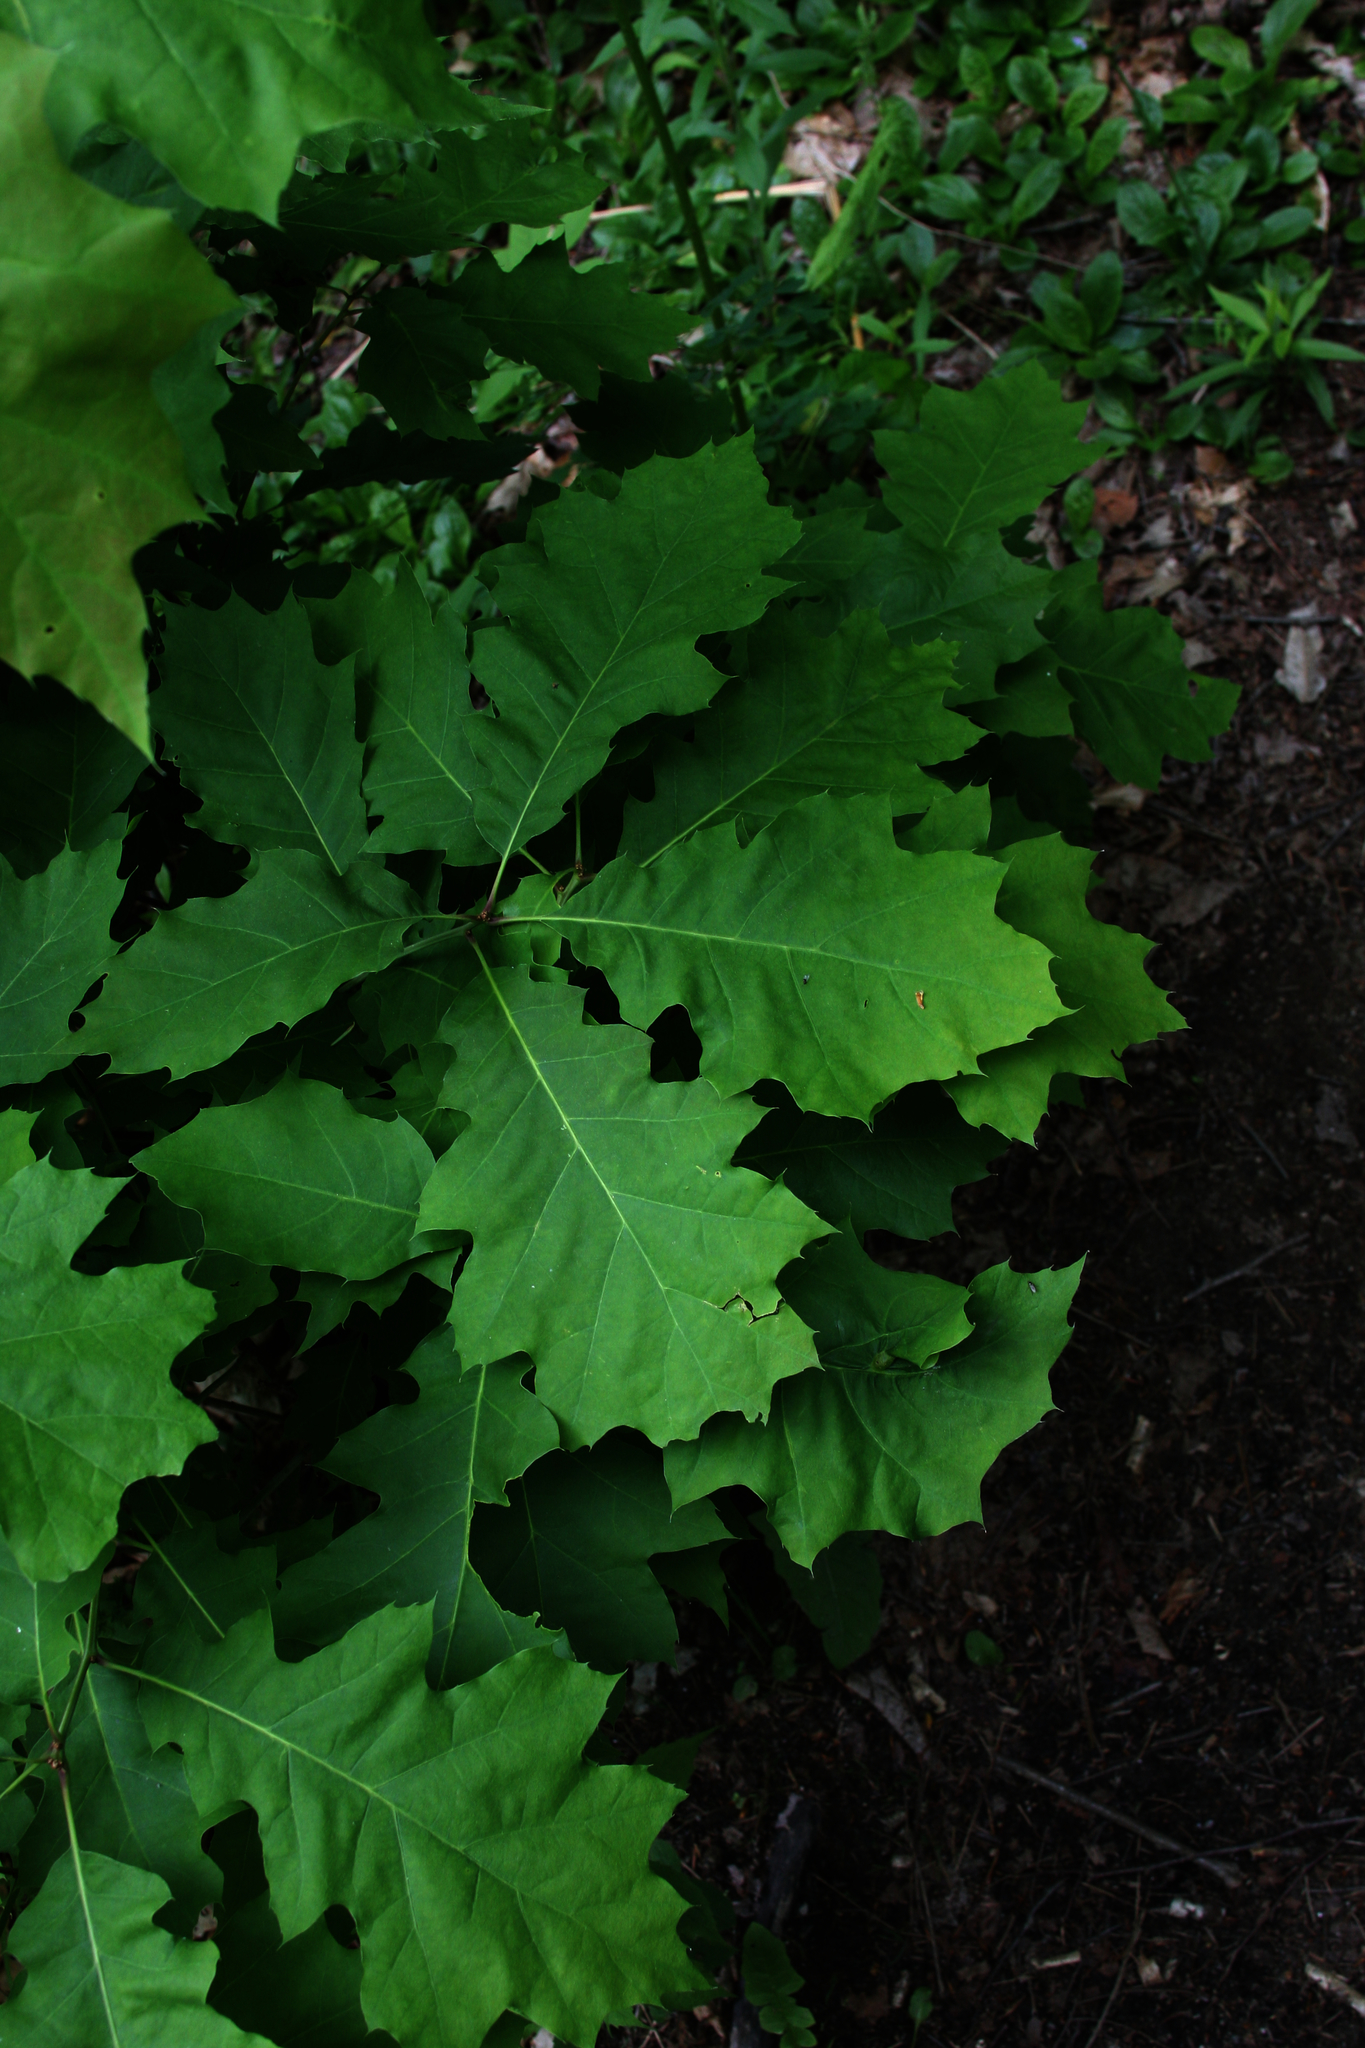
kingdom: Plantae
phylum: Tracheophyta
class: Magnoliopsida
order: Fagales
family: Fagaceae
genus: Quercus
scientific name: Quercus rubra
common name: Red oak
